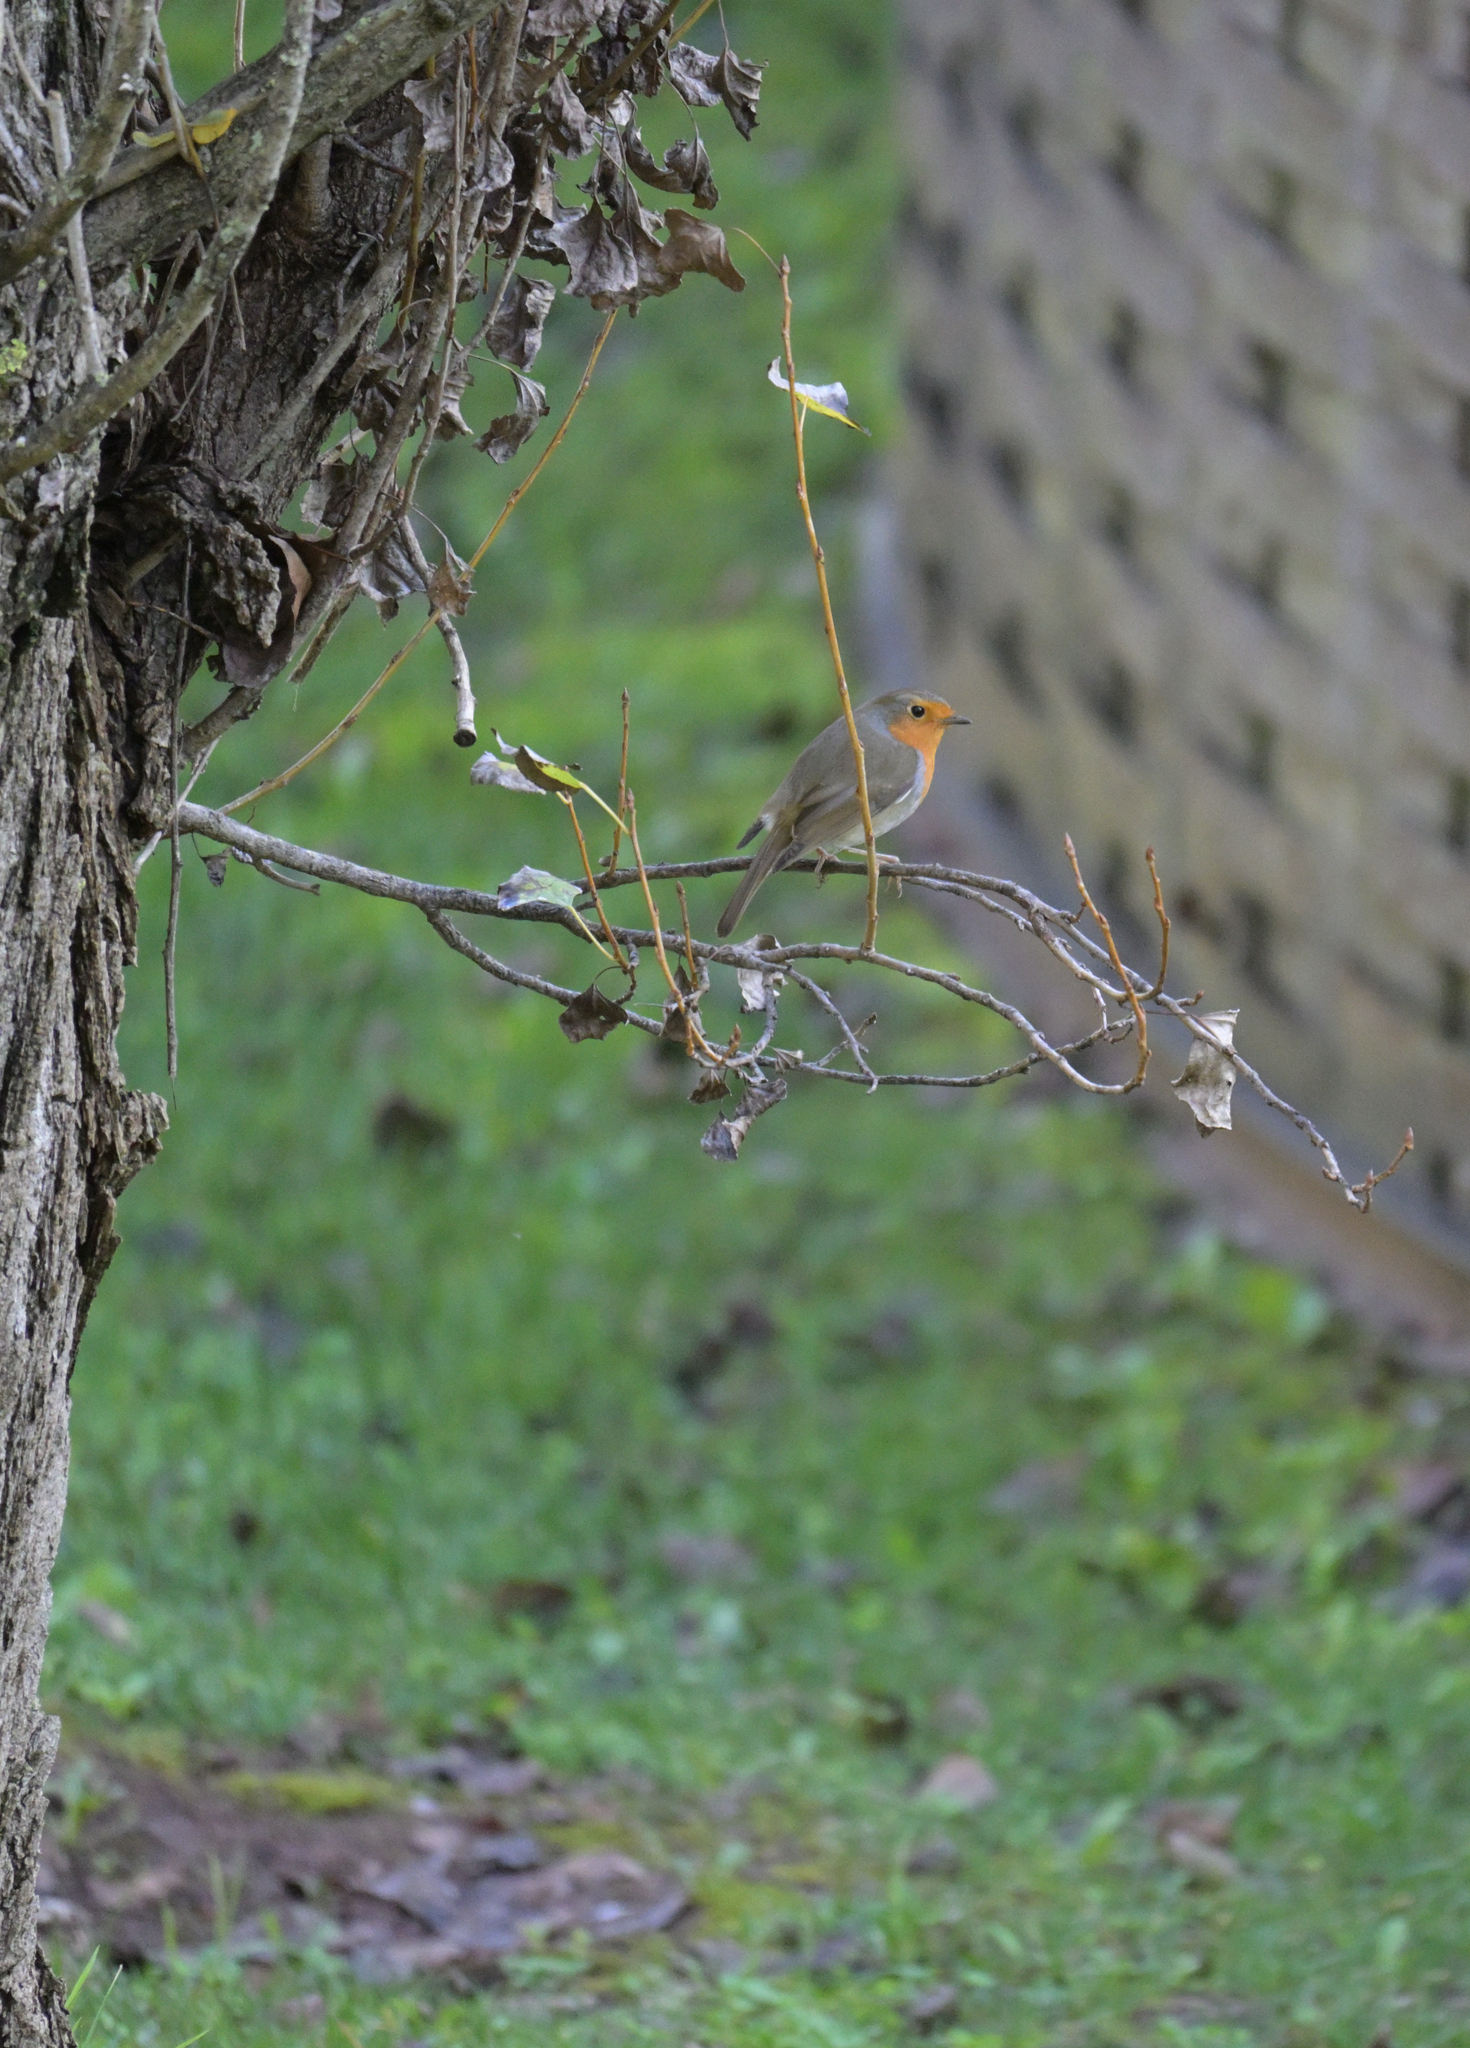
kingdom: Animalia
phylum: Chordata
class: Aves
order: Passeriformes
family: Muscicapidae
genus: Erithacus
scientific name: Erithacus rubecula
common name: European robin
